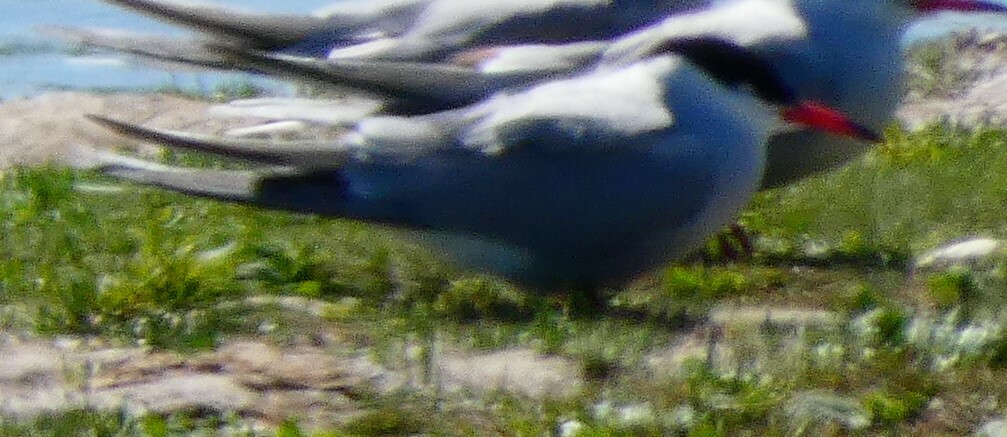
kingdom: Animalia
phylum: Chordata
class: Aves
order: Charadriiformes
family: Laridae
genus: Sterna
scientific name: Sterna hirundo
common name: Common tern
